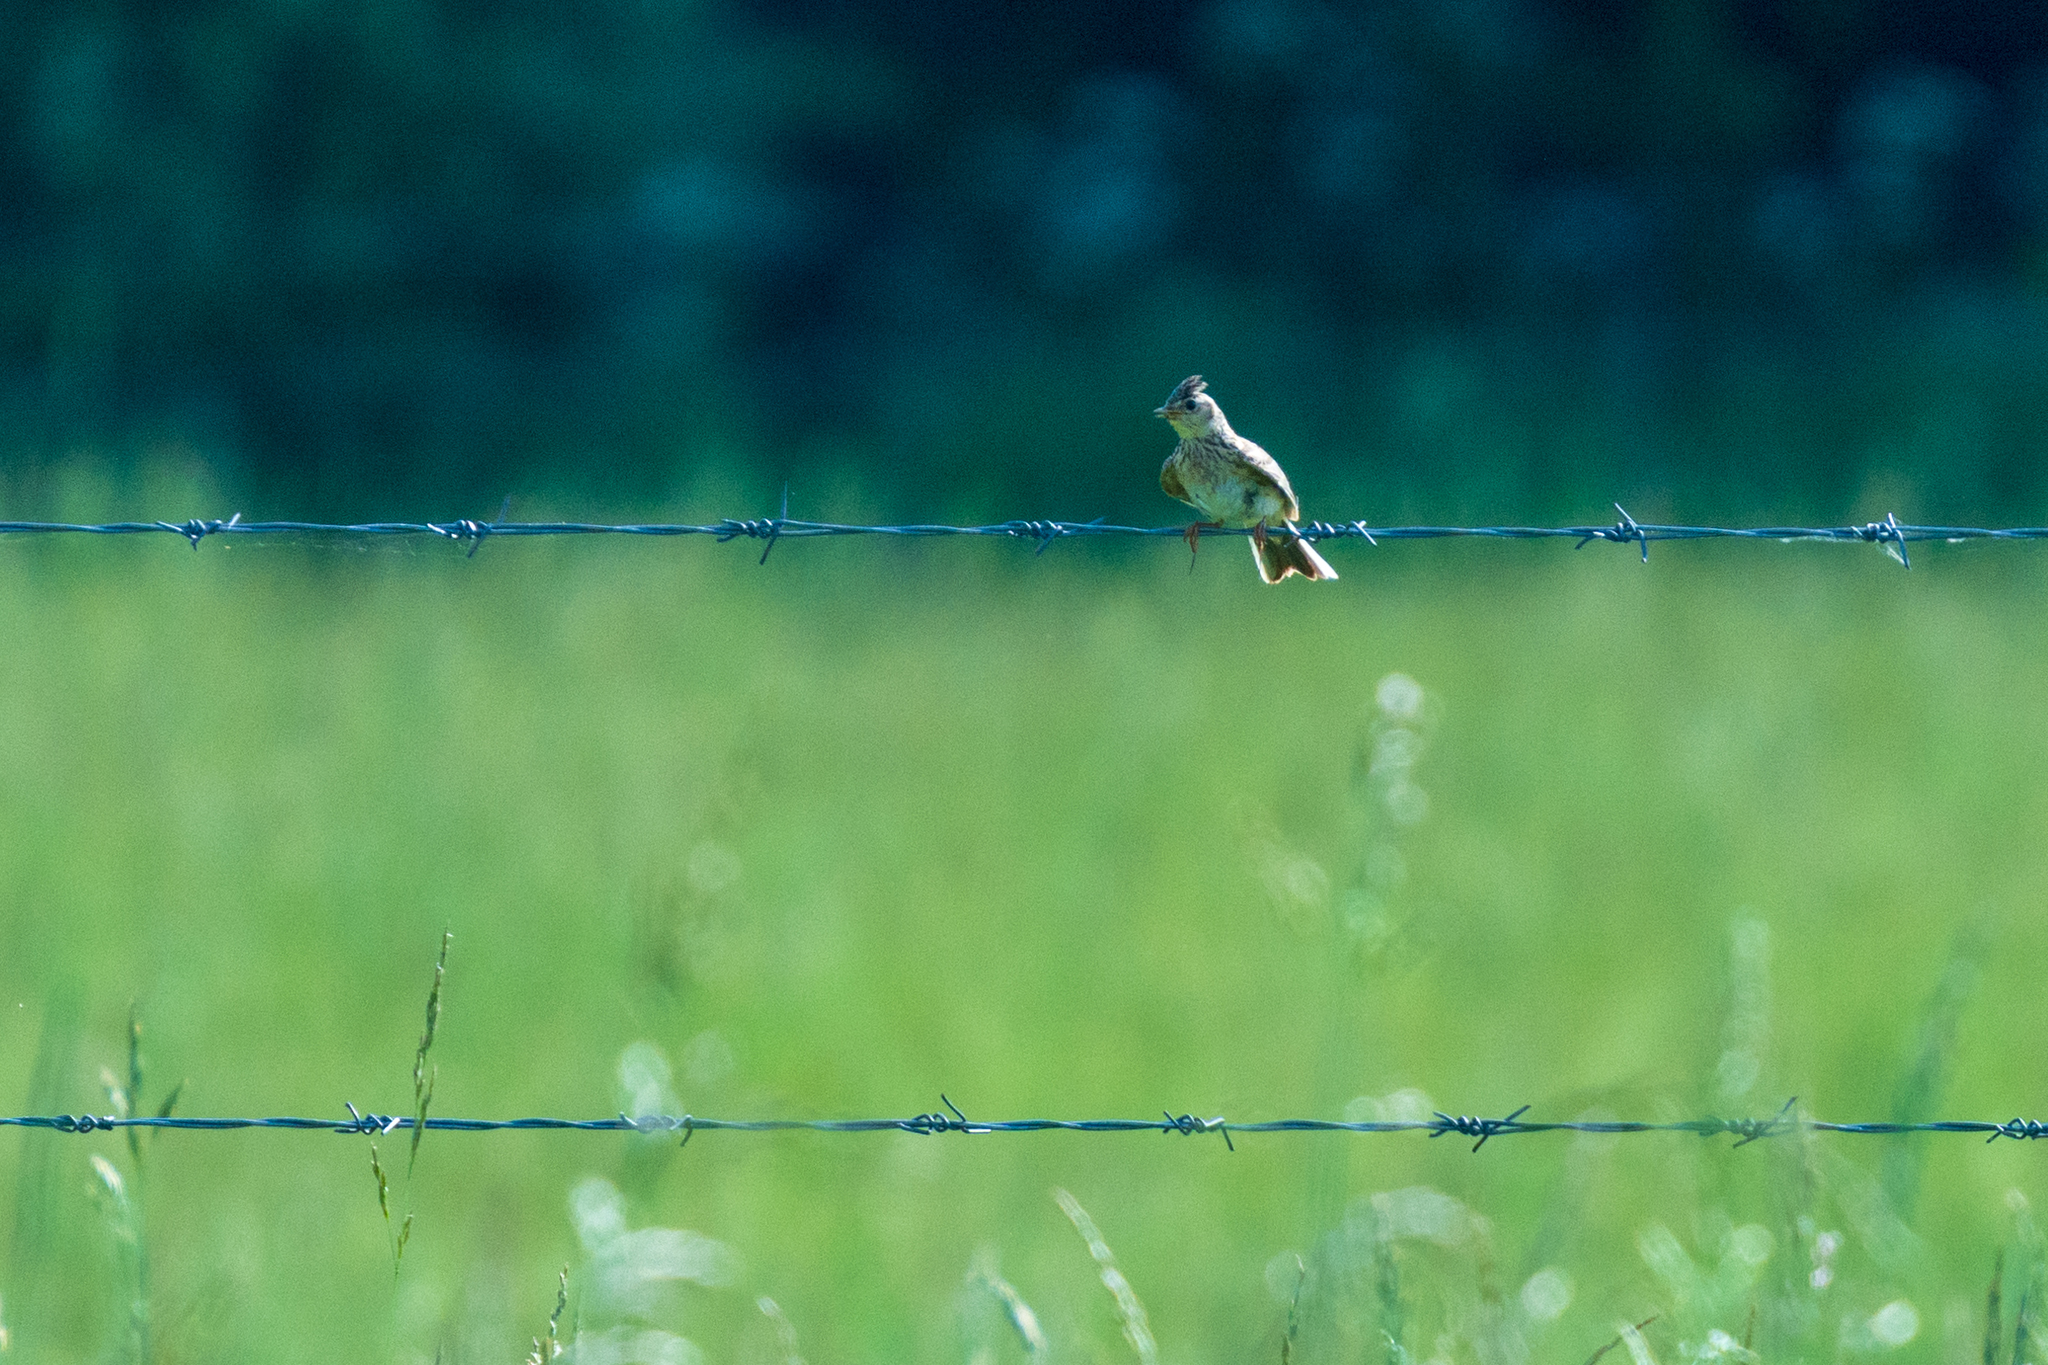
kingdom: Animalia
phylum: Chordata
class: Aves
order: Passeriformes
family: Alaudidae
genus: Alauda
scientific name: Alauda arvensis
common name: Eurasian skylark
